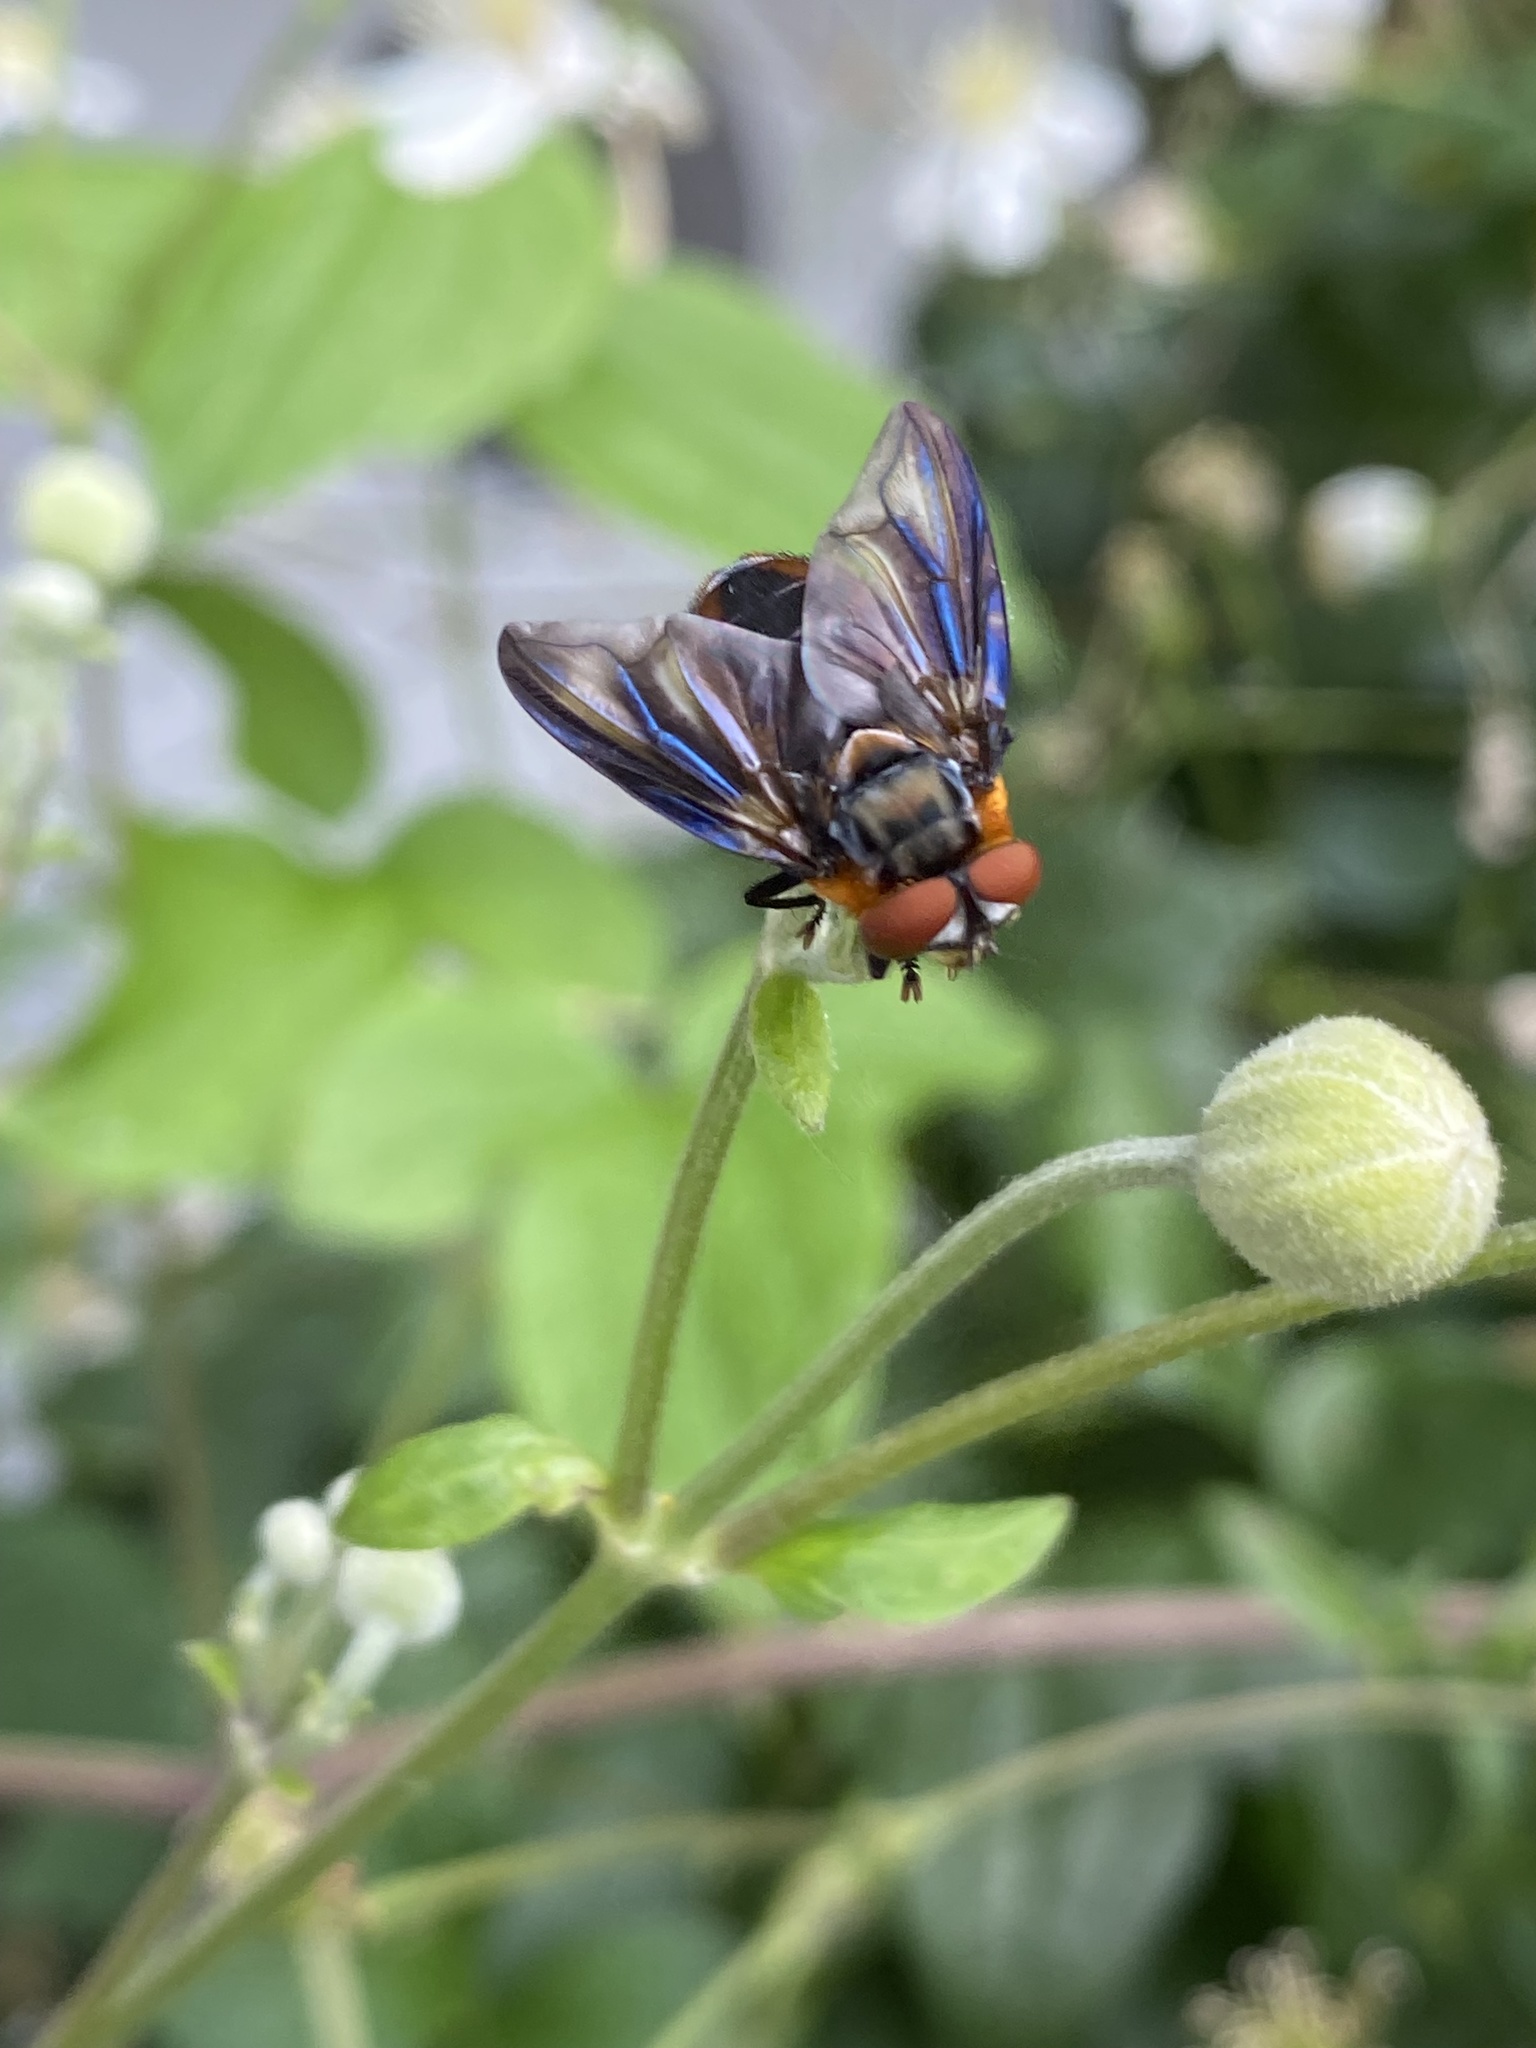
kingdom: Animalia
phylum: Arthropoda
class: Insecta
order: Diptera
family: Tachinidae
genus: Phasia
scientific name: Phasia hemiptera
